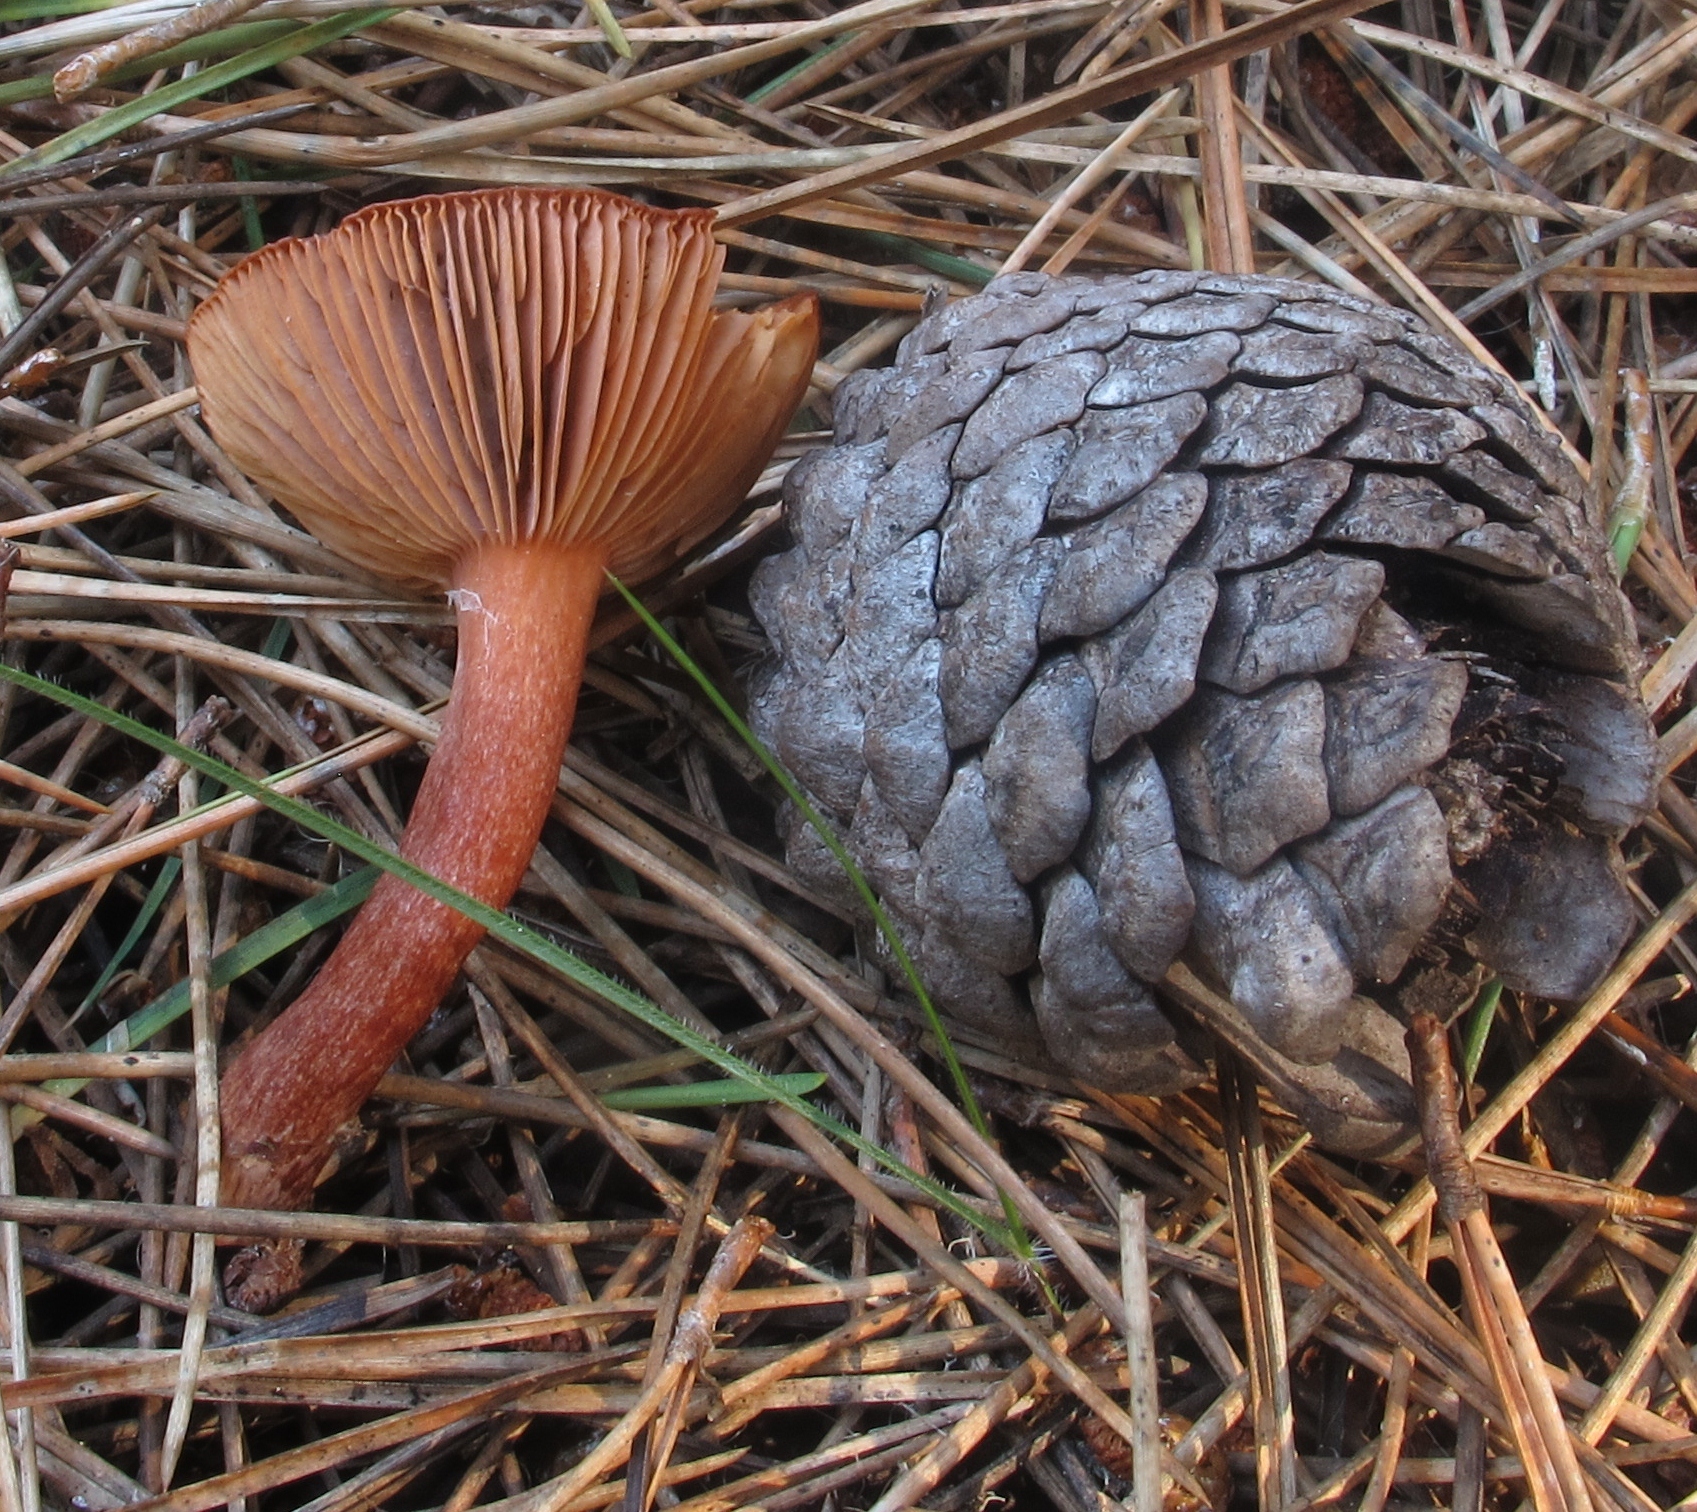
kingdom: Fungi
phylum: Basidiomycota
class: Agaricomycetes
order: Russulales
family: Russulaceae
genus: Lactarius
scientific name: Lactarius atrobadius
